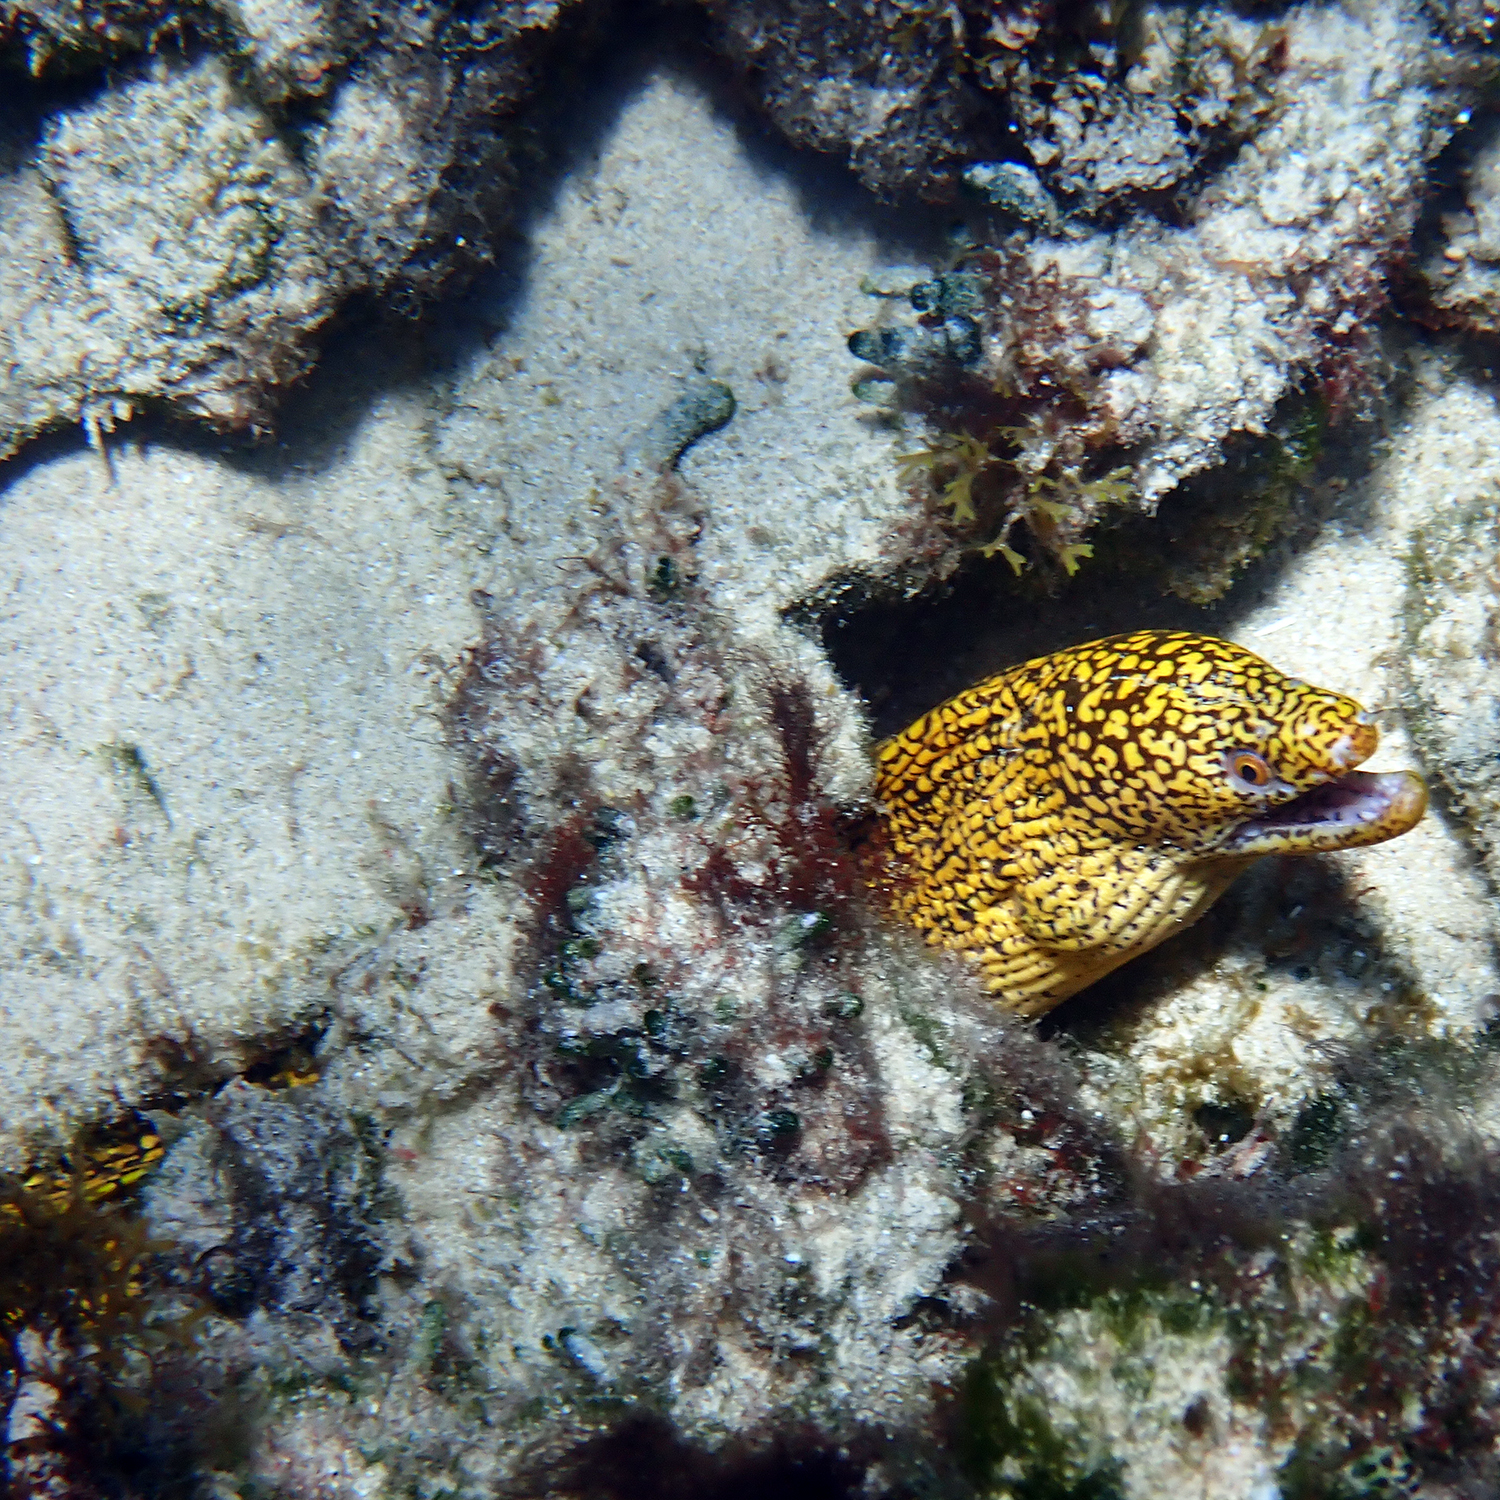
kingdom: Animalia
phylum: Chordata
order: Anguilliformes
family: Muraenidae
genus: Gymnothorax
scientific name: Gymnothorax eurostus
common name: Stout moray
